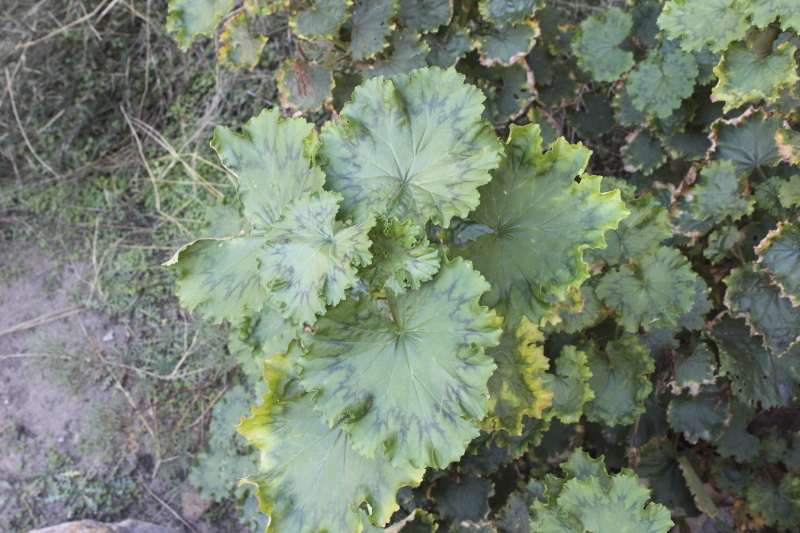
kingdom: Plantae
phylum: Tracheophyta
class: Magnoliopsida
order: Geraniales
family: Geraniaceae
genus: Pelargonium
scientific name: Pelargonium zonale
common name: Horseshoe geranium
